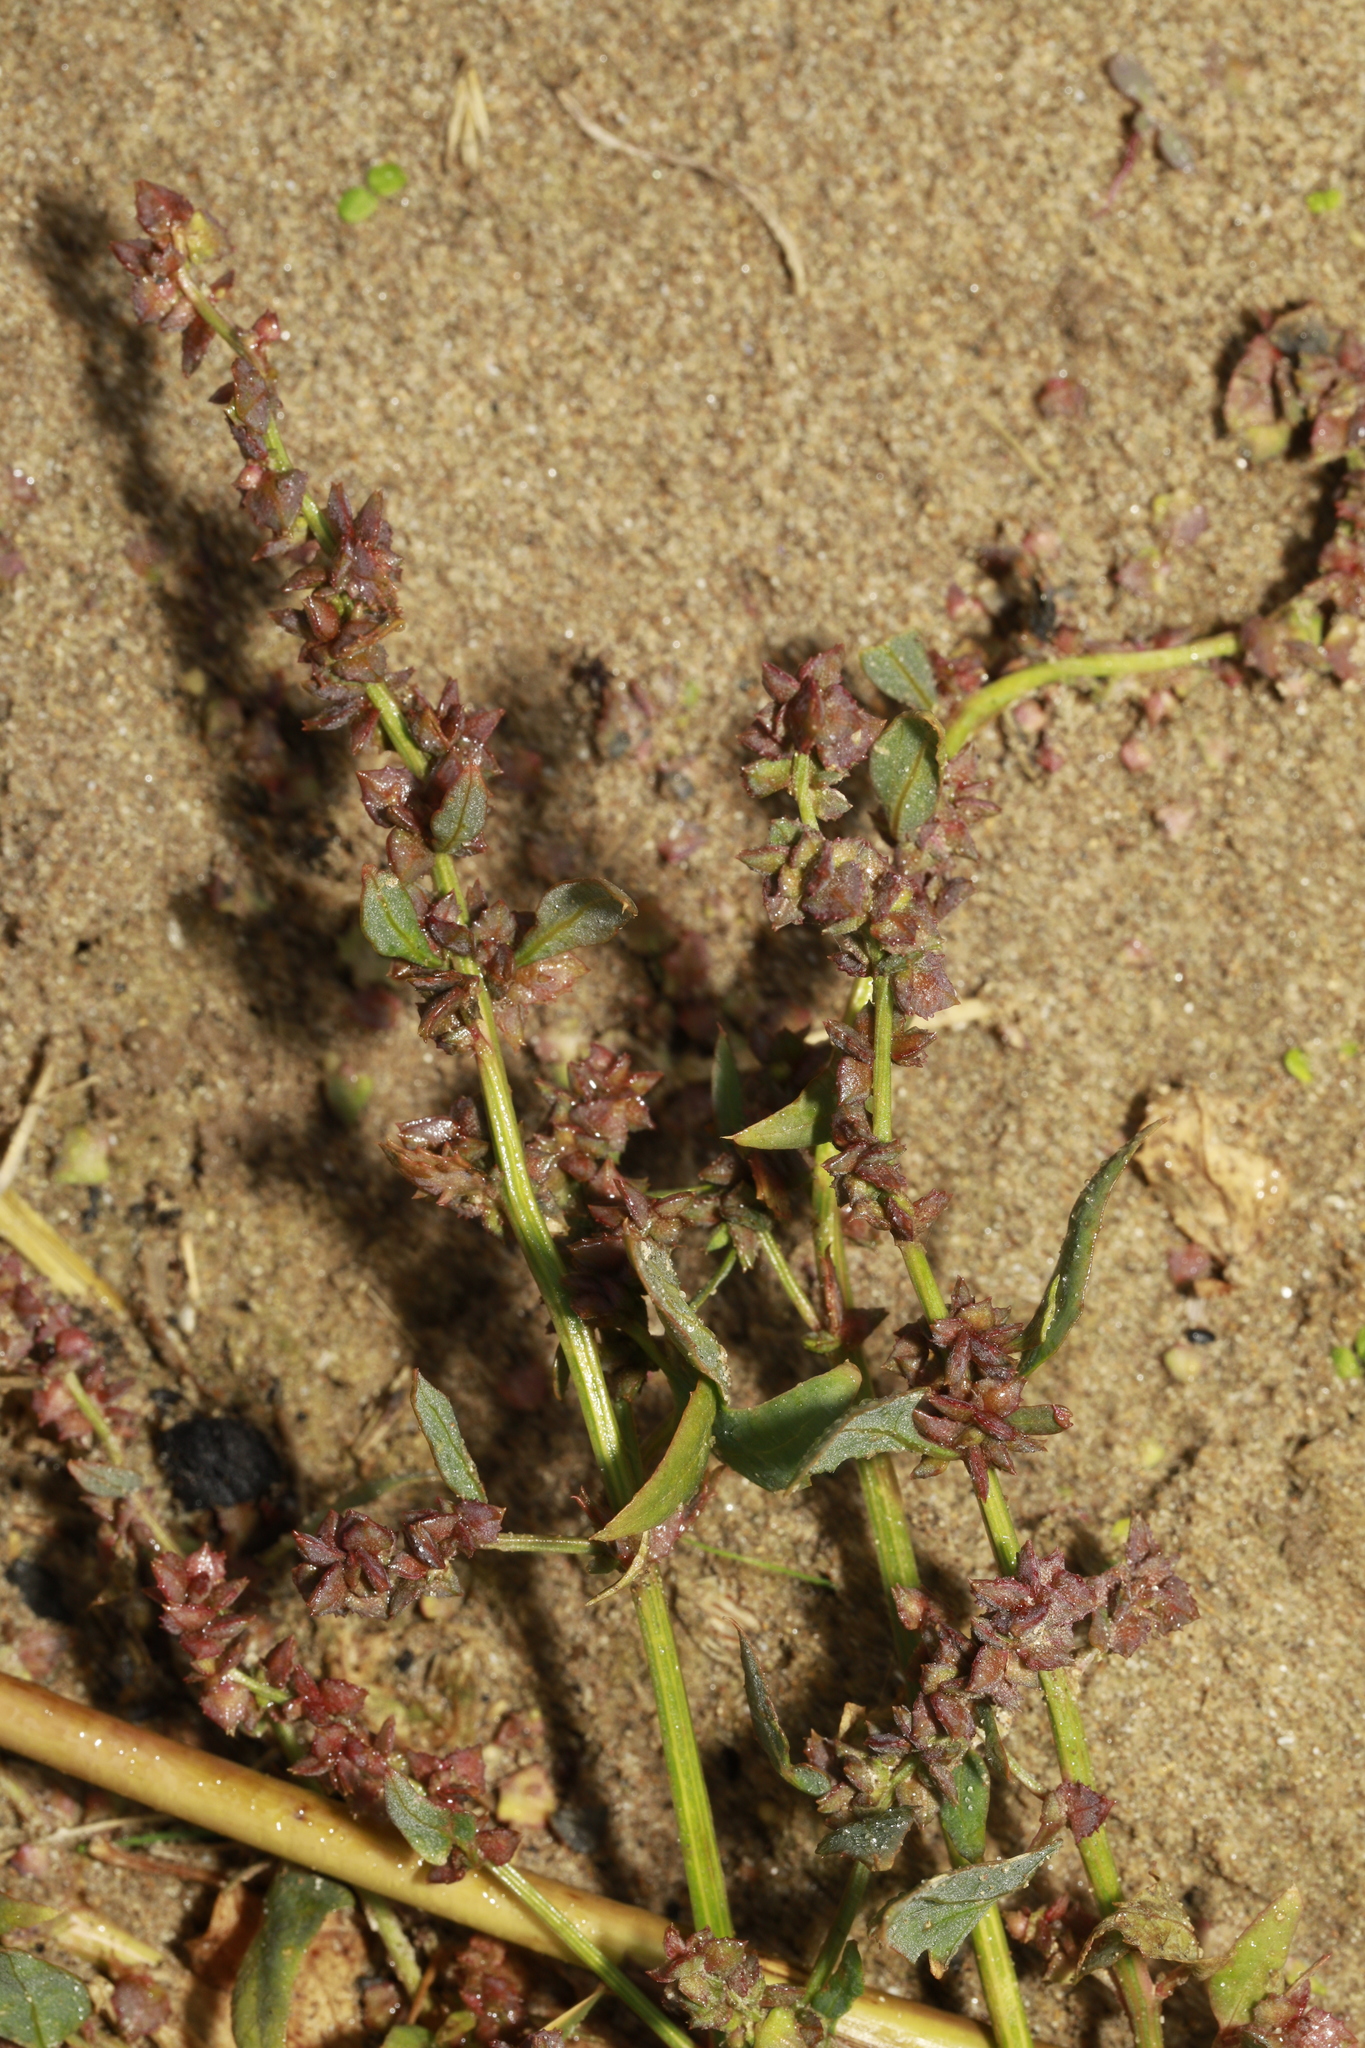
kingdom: Plantae
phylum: Tracheophyta
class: Magnoliopsida
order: Caryophyllales
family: Amaranthaceae
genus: Atriplex
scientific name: Atriplex prostrata
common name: Spear-leaved orache
